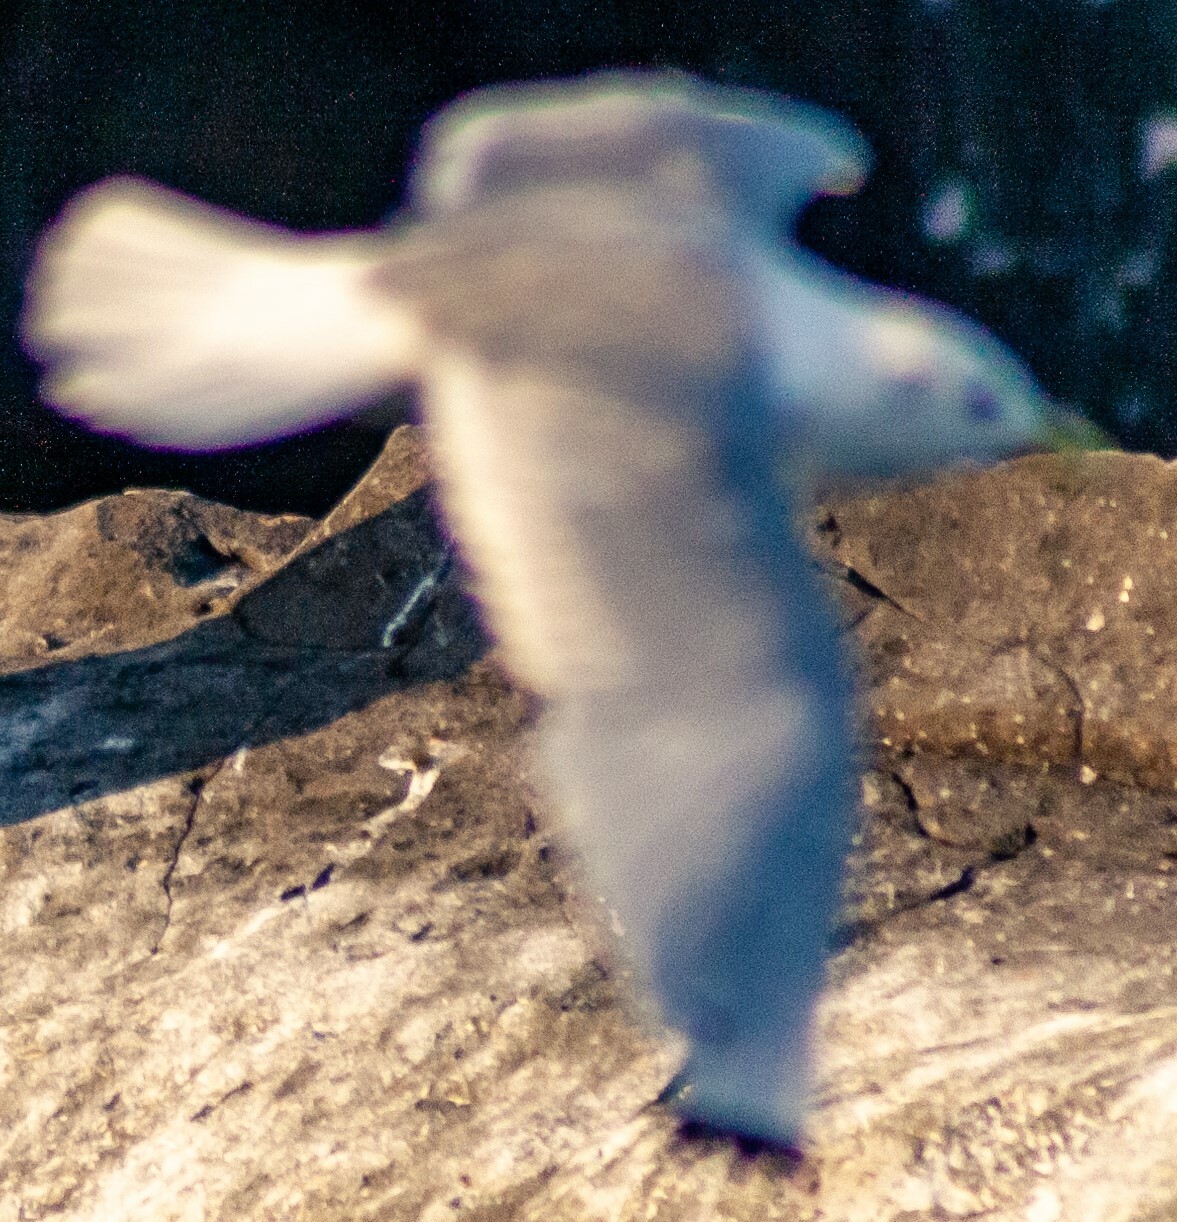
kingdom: Animalia
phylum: Chordata
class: Aves
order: Charadriiformes
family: Laridae
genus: Rissa
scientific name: Rissa tridactyla
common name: Black-legged kittiwake
